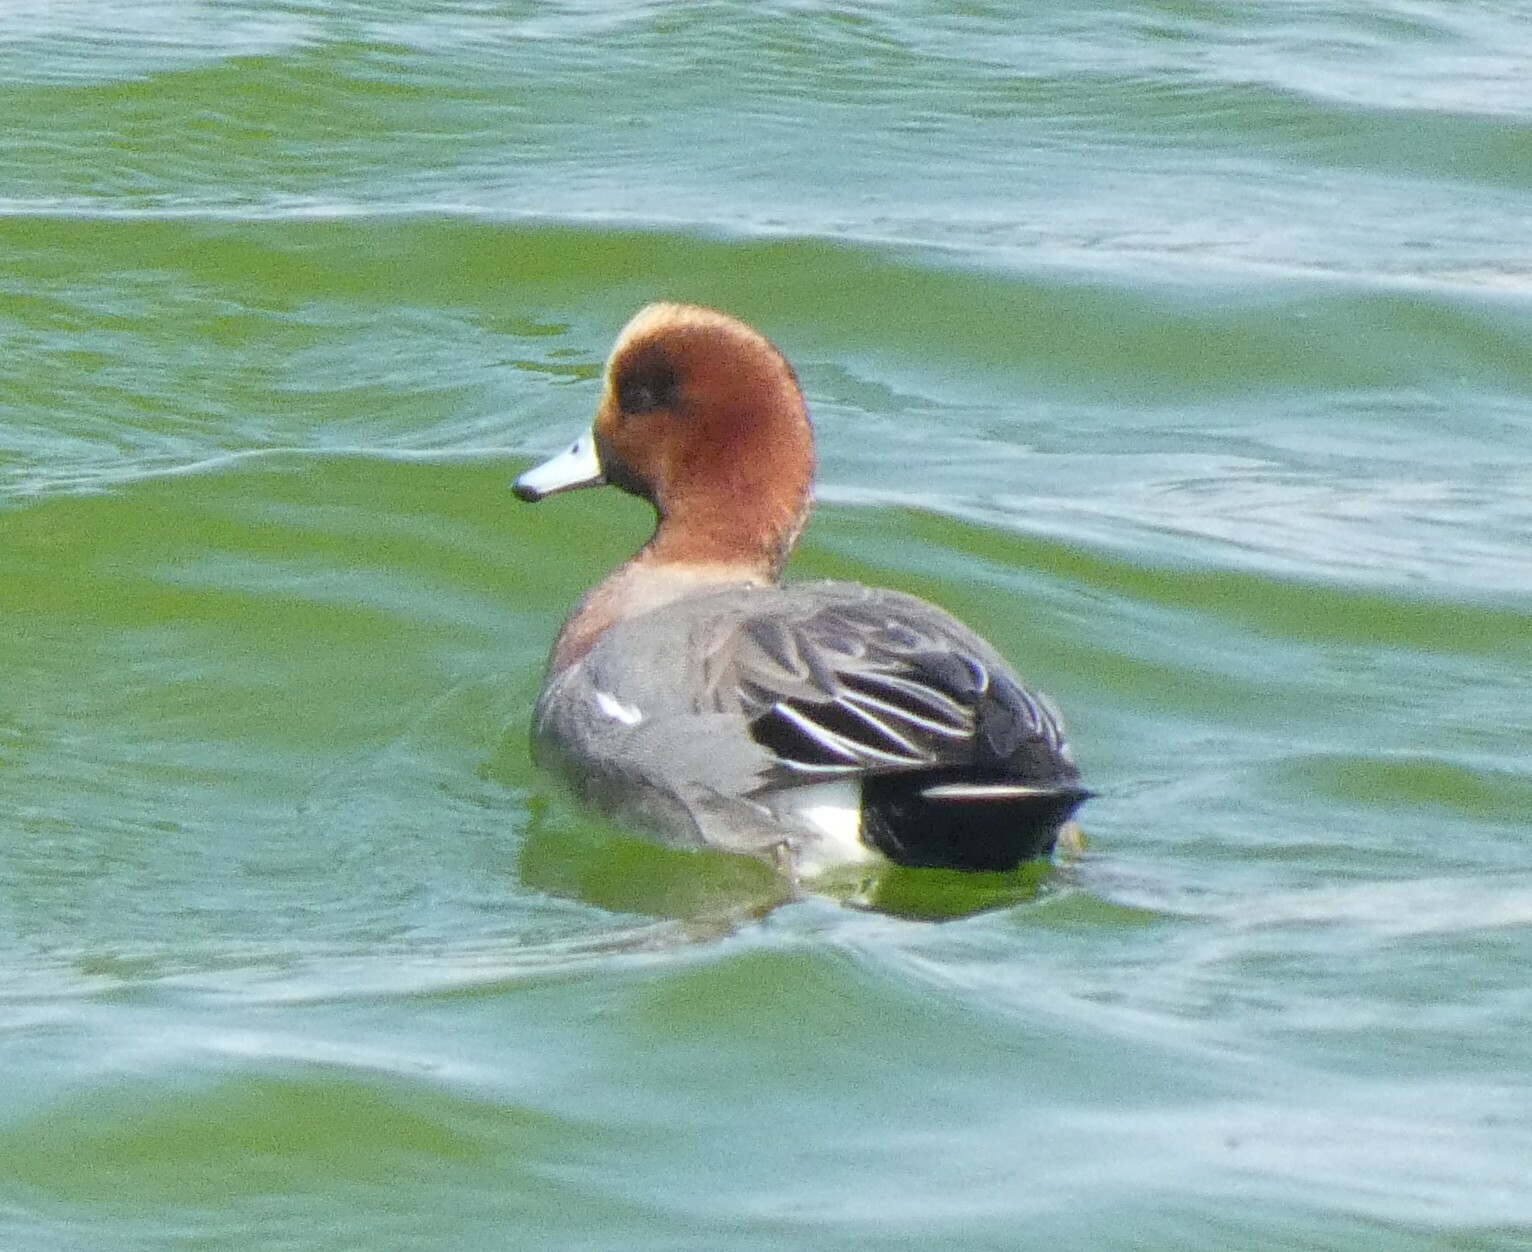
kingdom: Animalia
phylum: Chordata
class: Aves
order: Anseriformes
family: Anatidae
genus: Mareca
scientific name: Mareca penelope
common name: Eurasian wigeon
